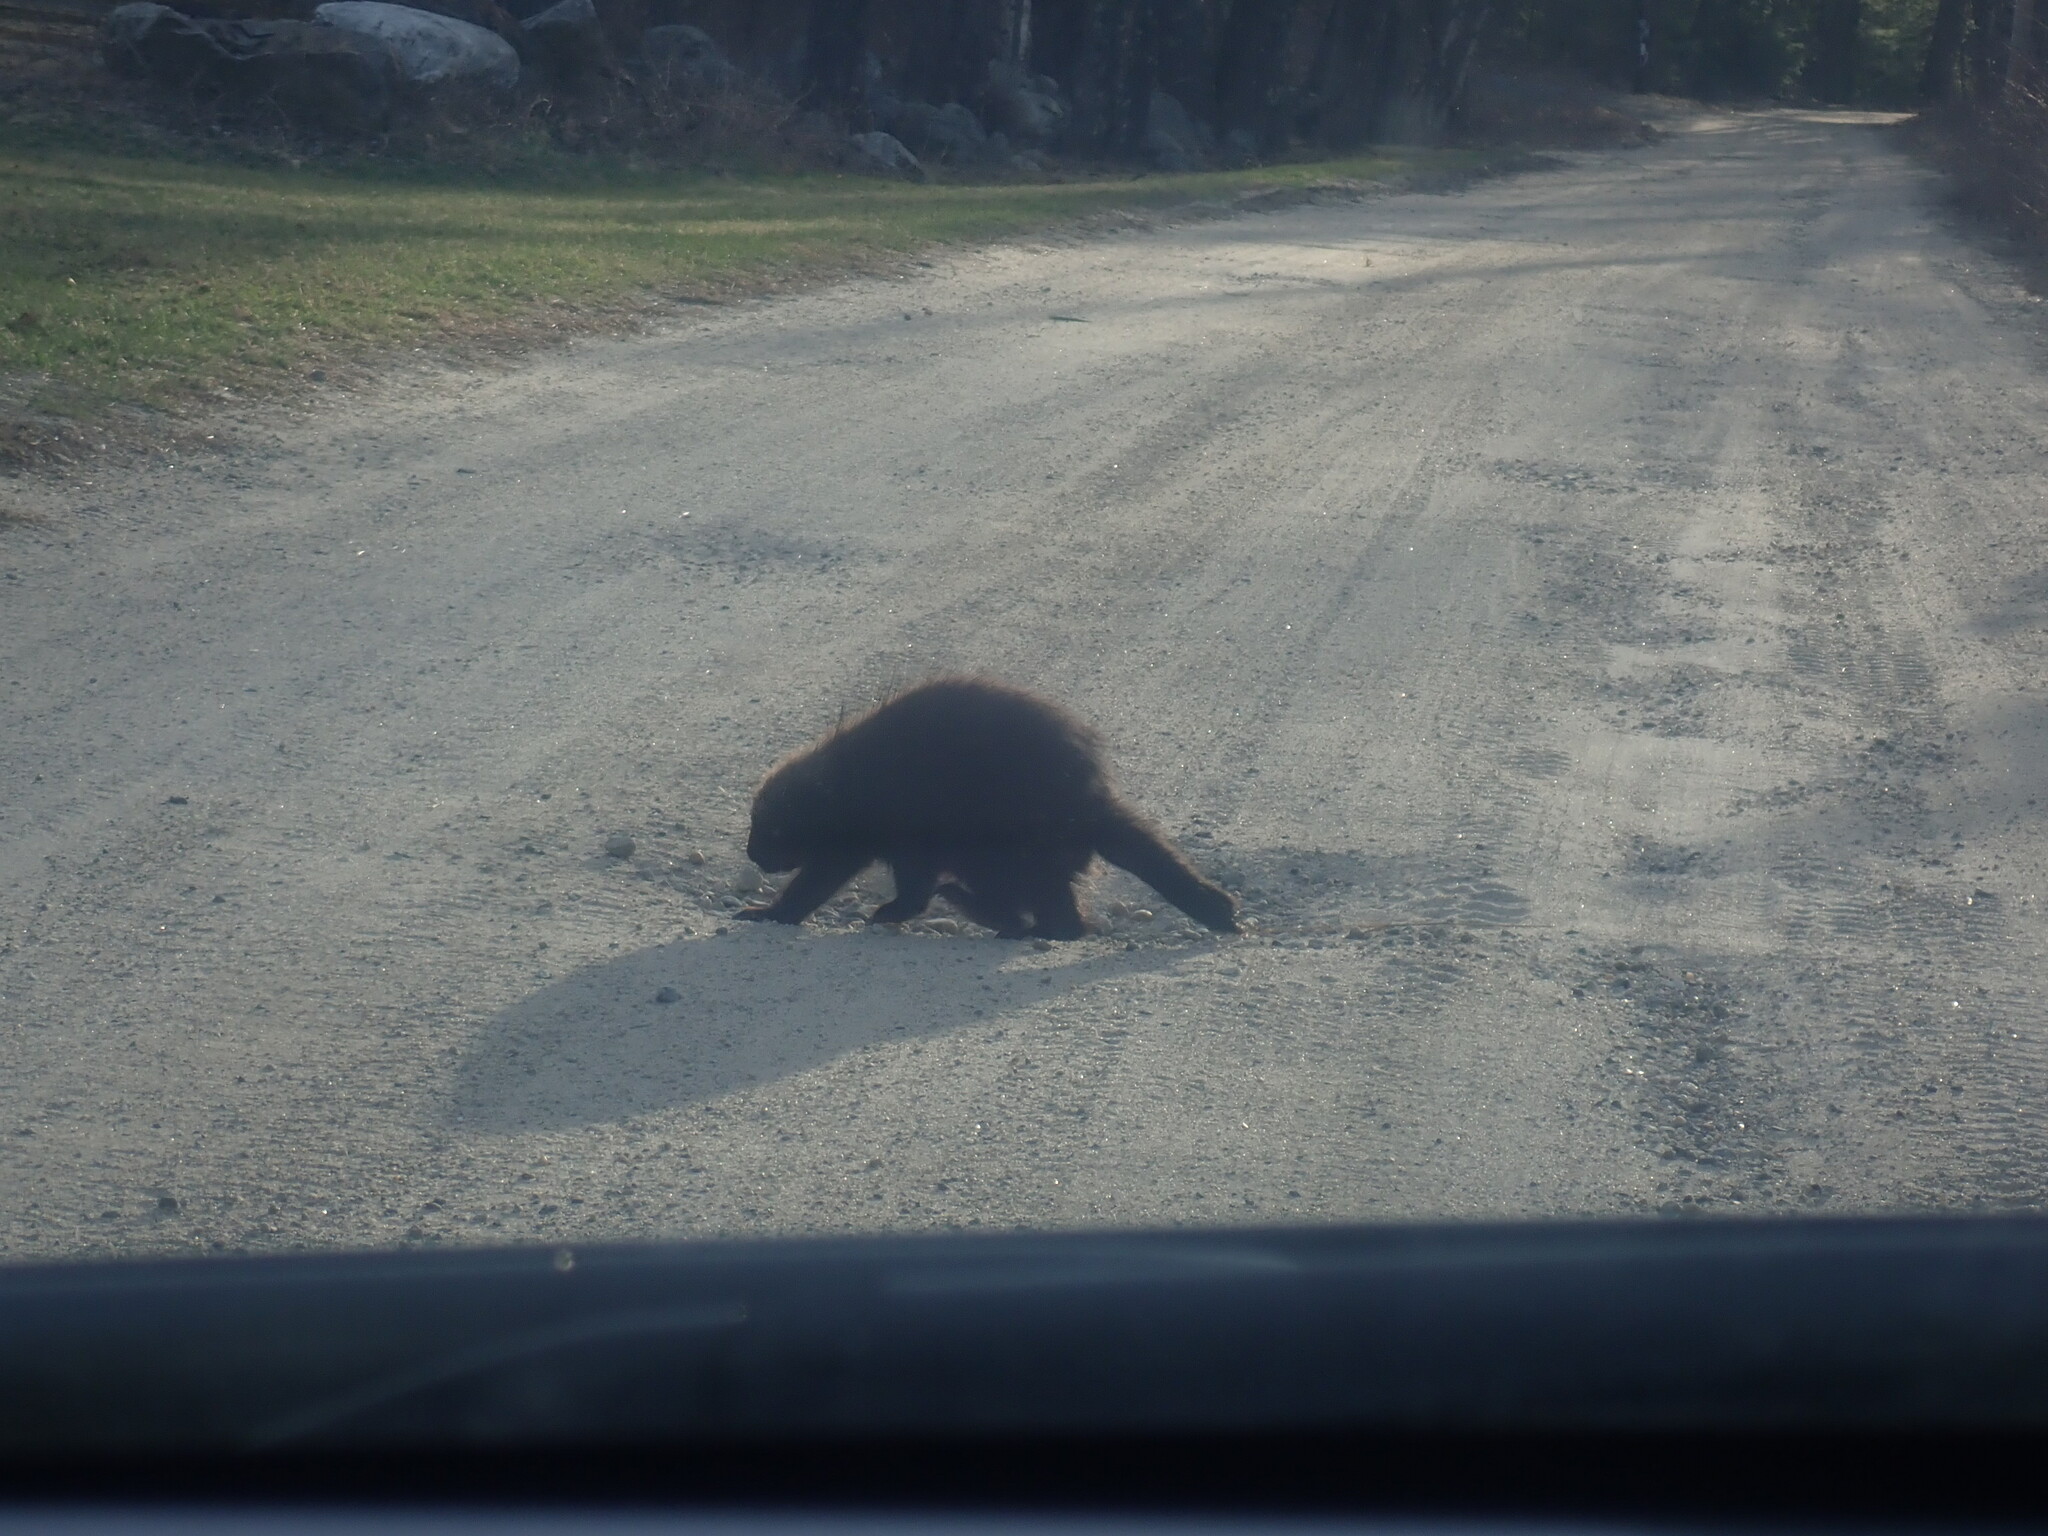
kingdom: Animalia
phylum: Chordata
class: Mammalia
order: Rodentia
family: Erethizontidae
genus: Erethizon
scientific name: Erethizon dorsatus
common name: North american porcupine
